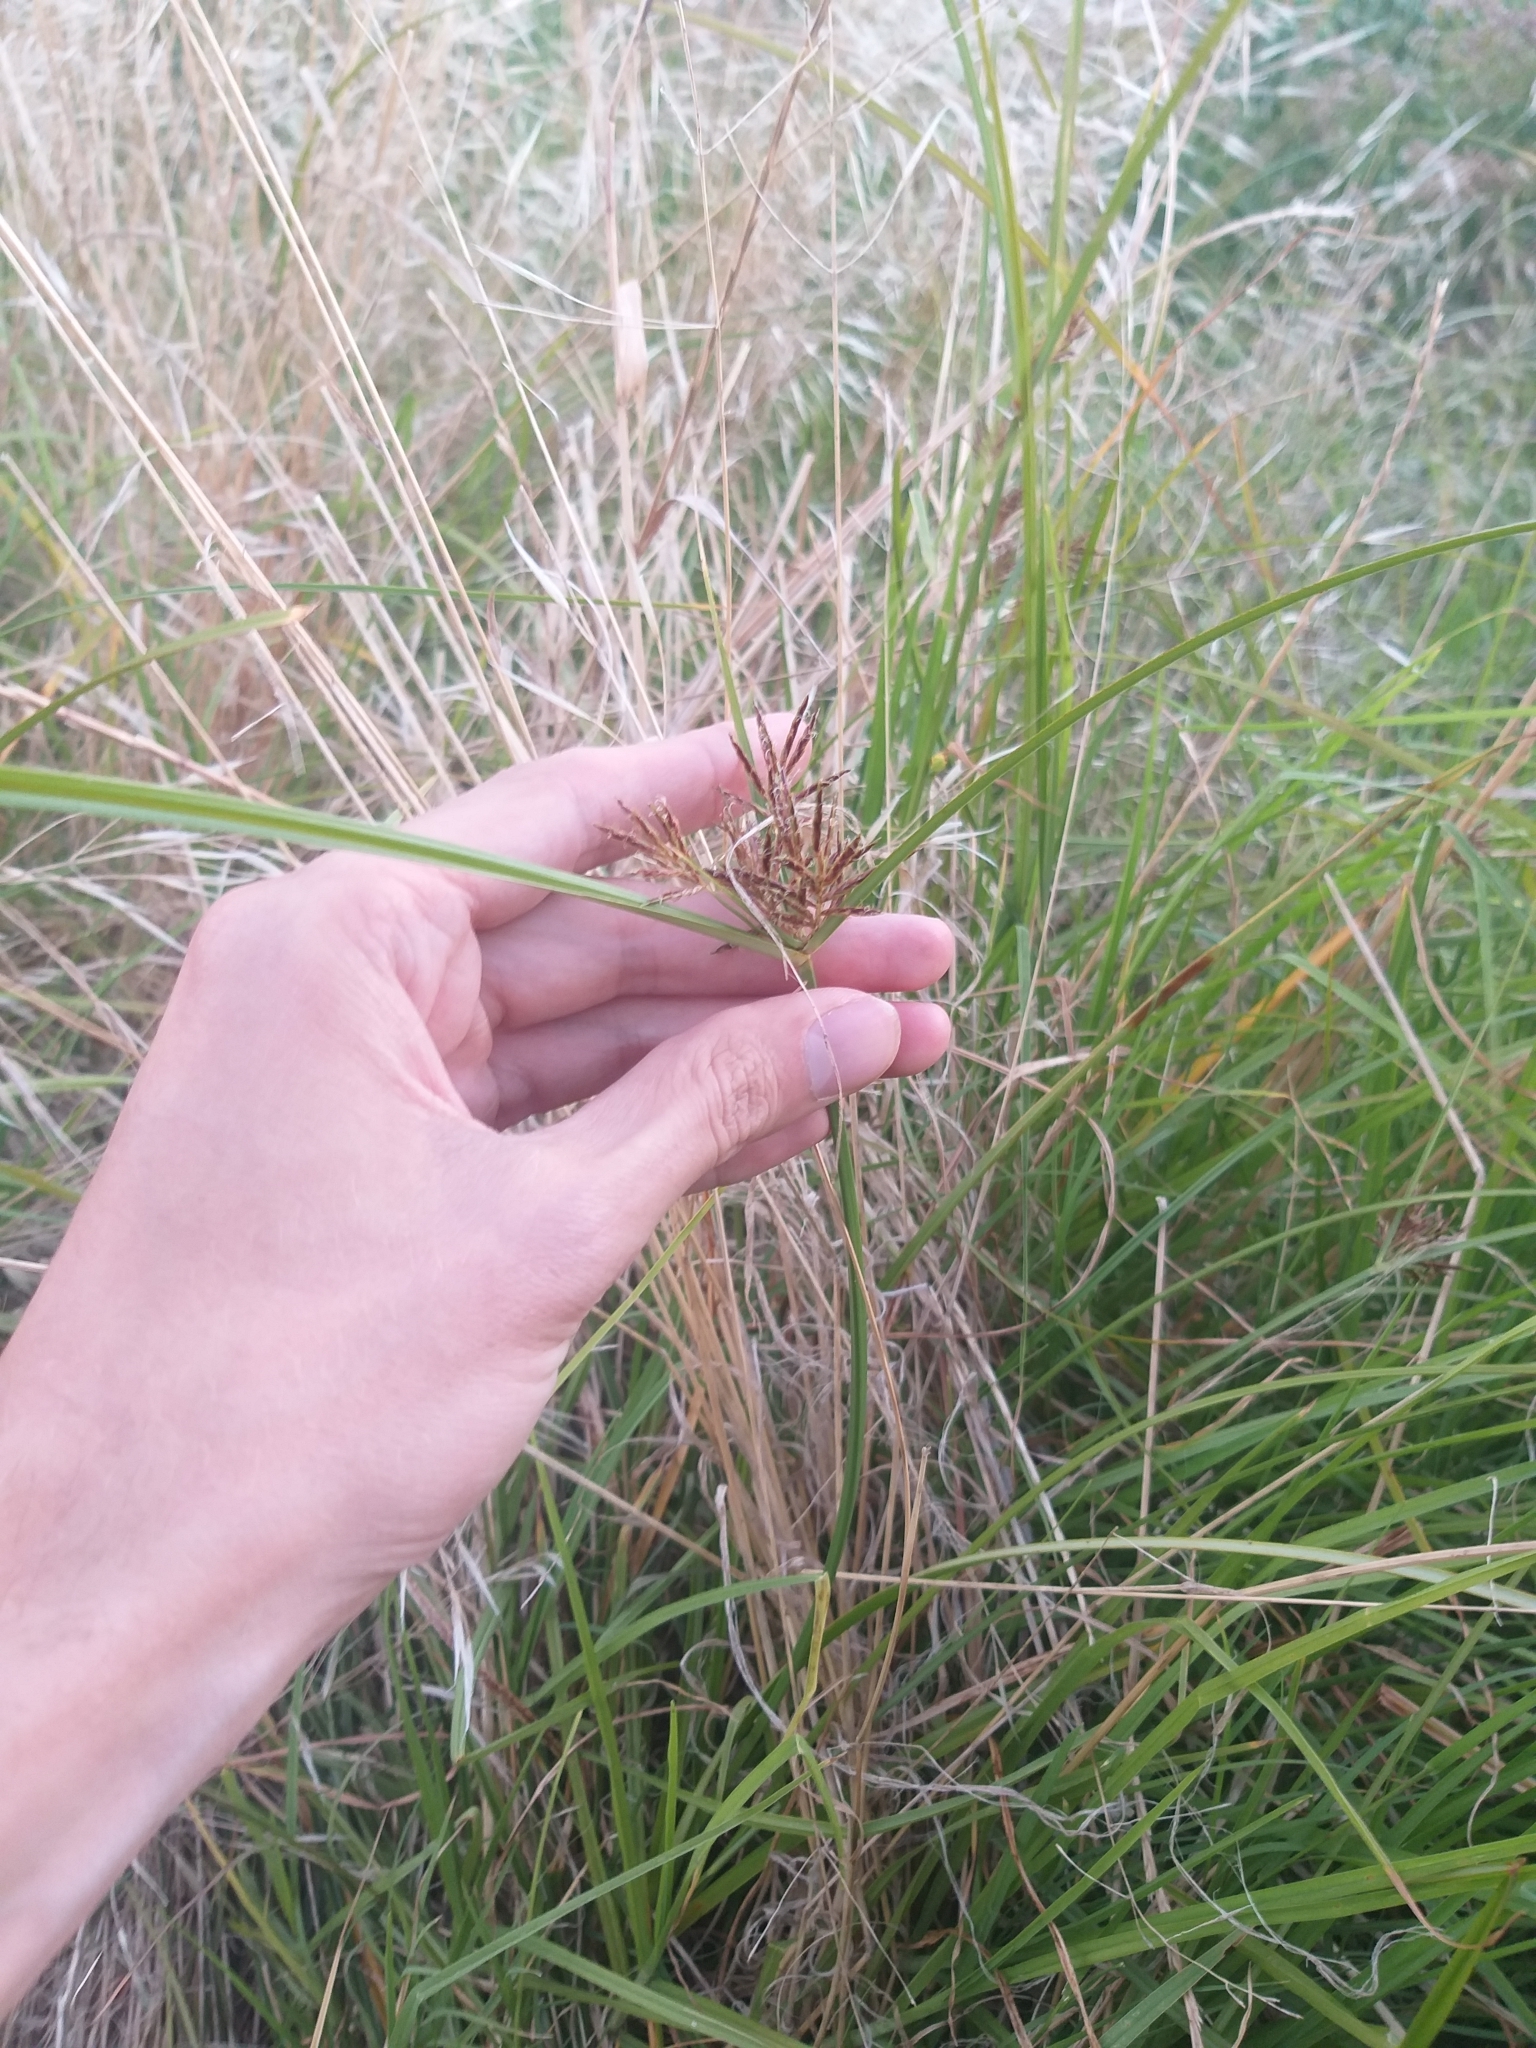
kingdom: Plantae
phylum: Tracheophyta
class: Liliopsida
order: Poales
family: Cyperaceae
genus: Cyperus
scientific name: Cyperus longus
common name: Galingale
